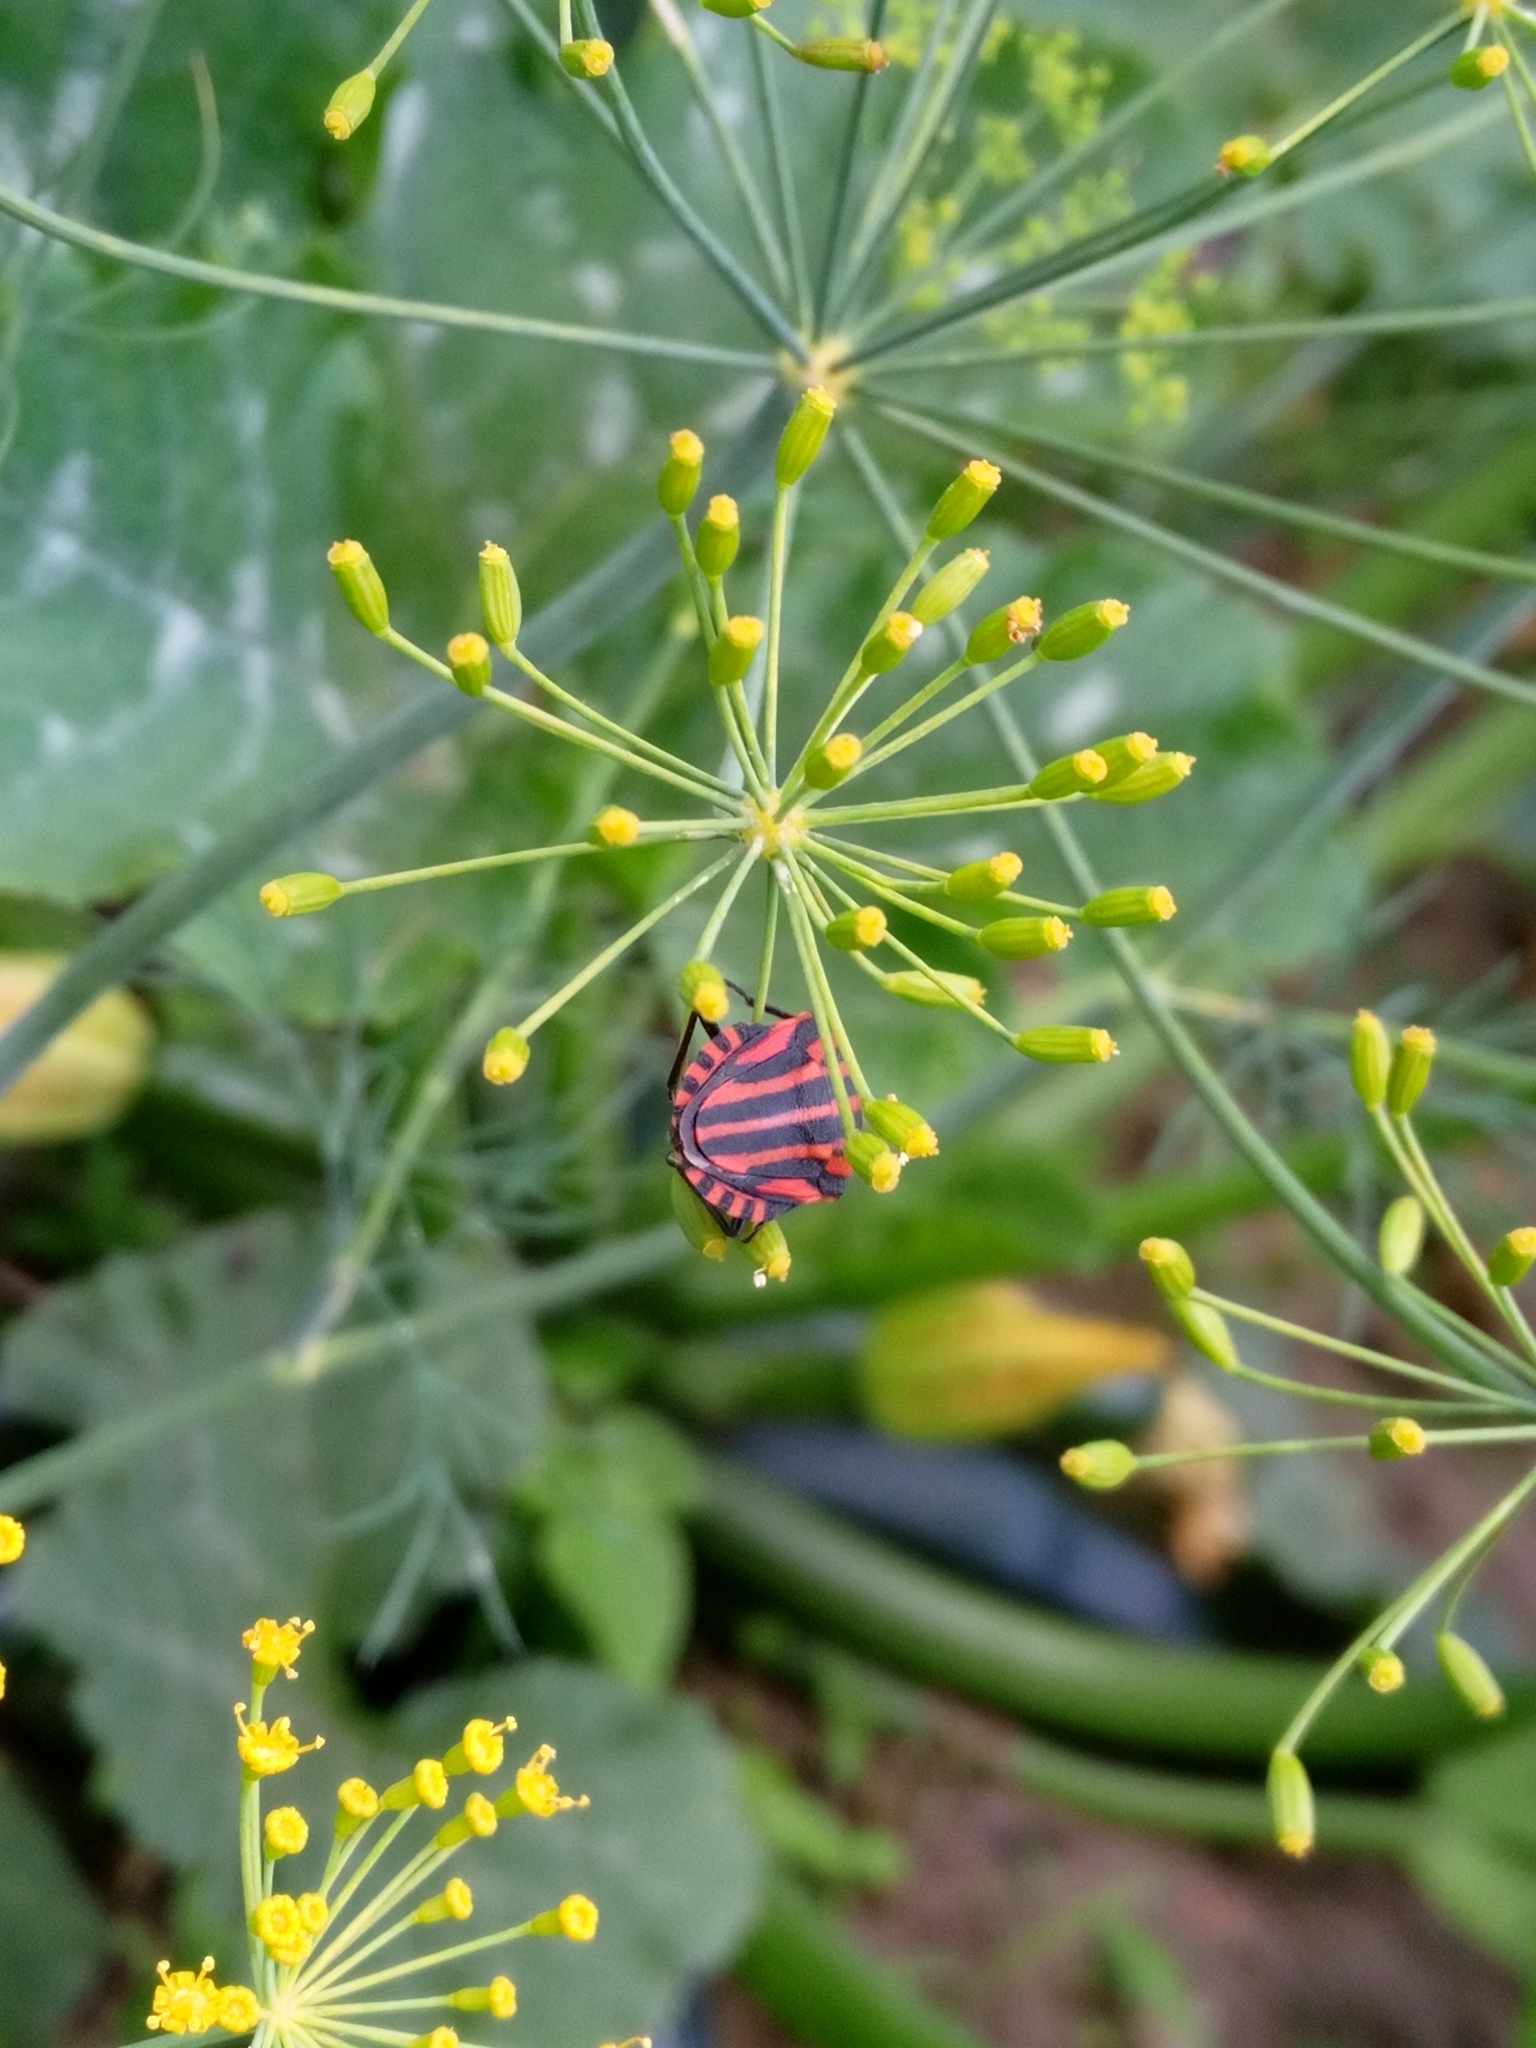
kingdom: Animalia
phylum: Arthropoda
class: Insecta
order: Hemiptera
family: Pentatomidae
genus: Graphosoma
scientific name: Graphosoma italicum
